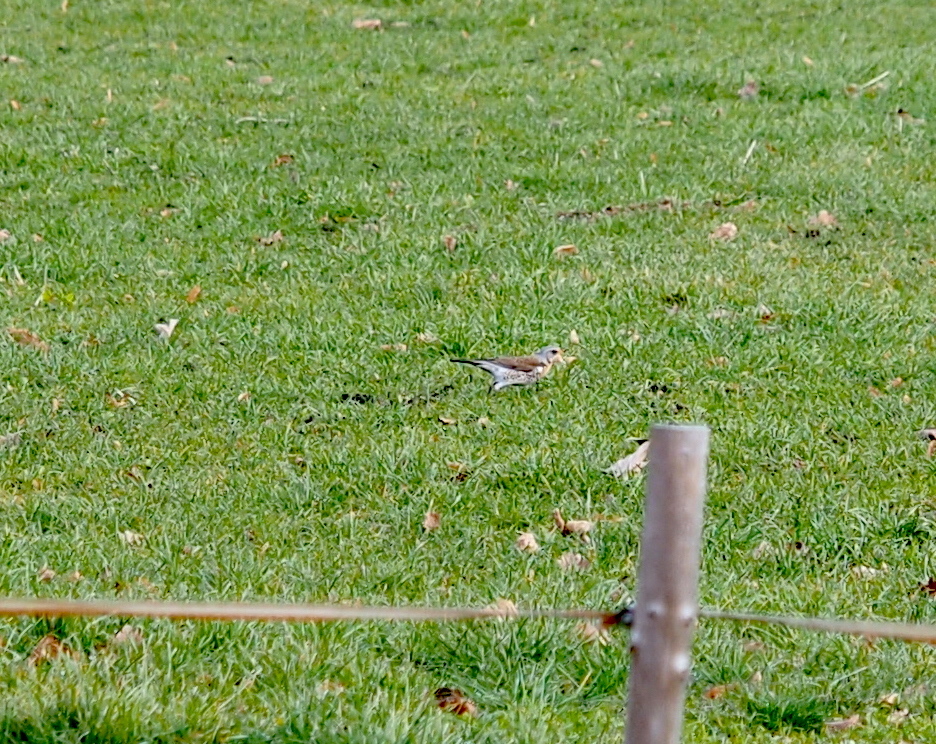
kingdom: Animalia
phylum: Chordata
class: Aves
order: Passeriformes
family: Turdidae
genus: Turdus
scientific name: Turdus pilaris
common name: Fieldfare
